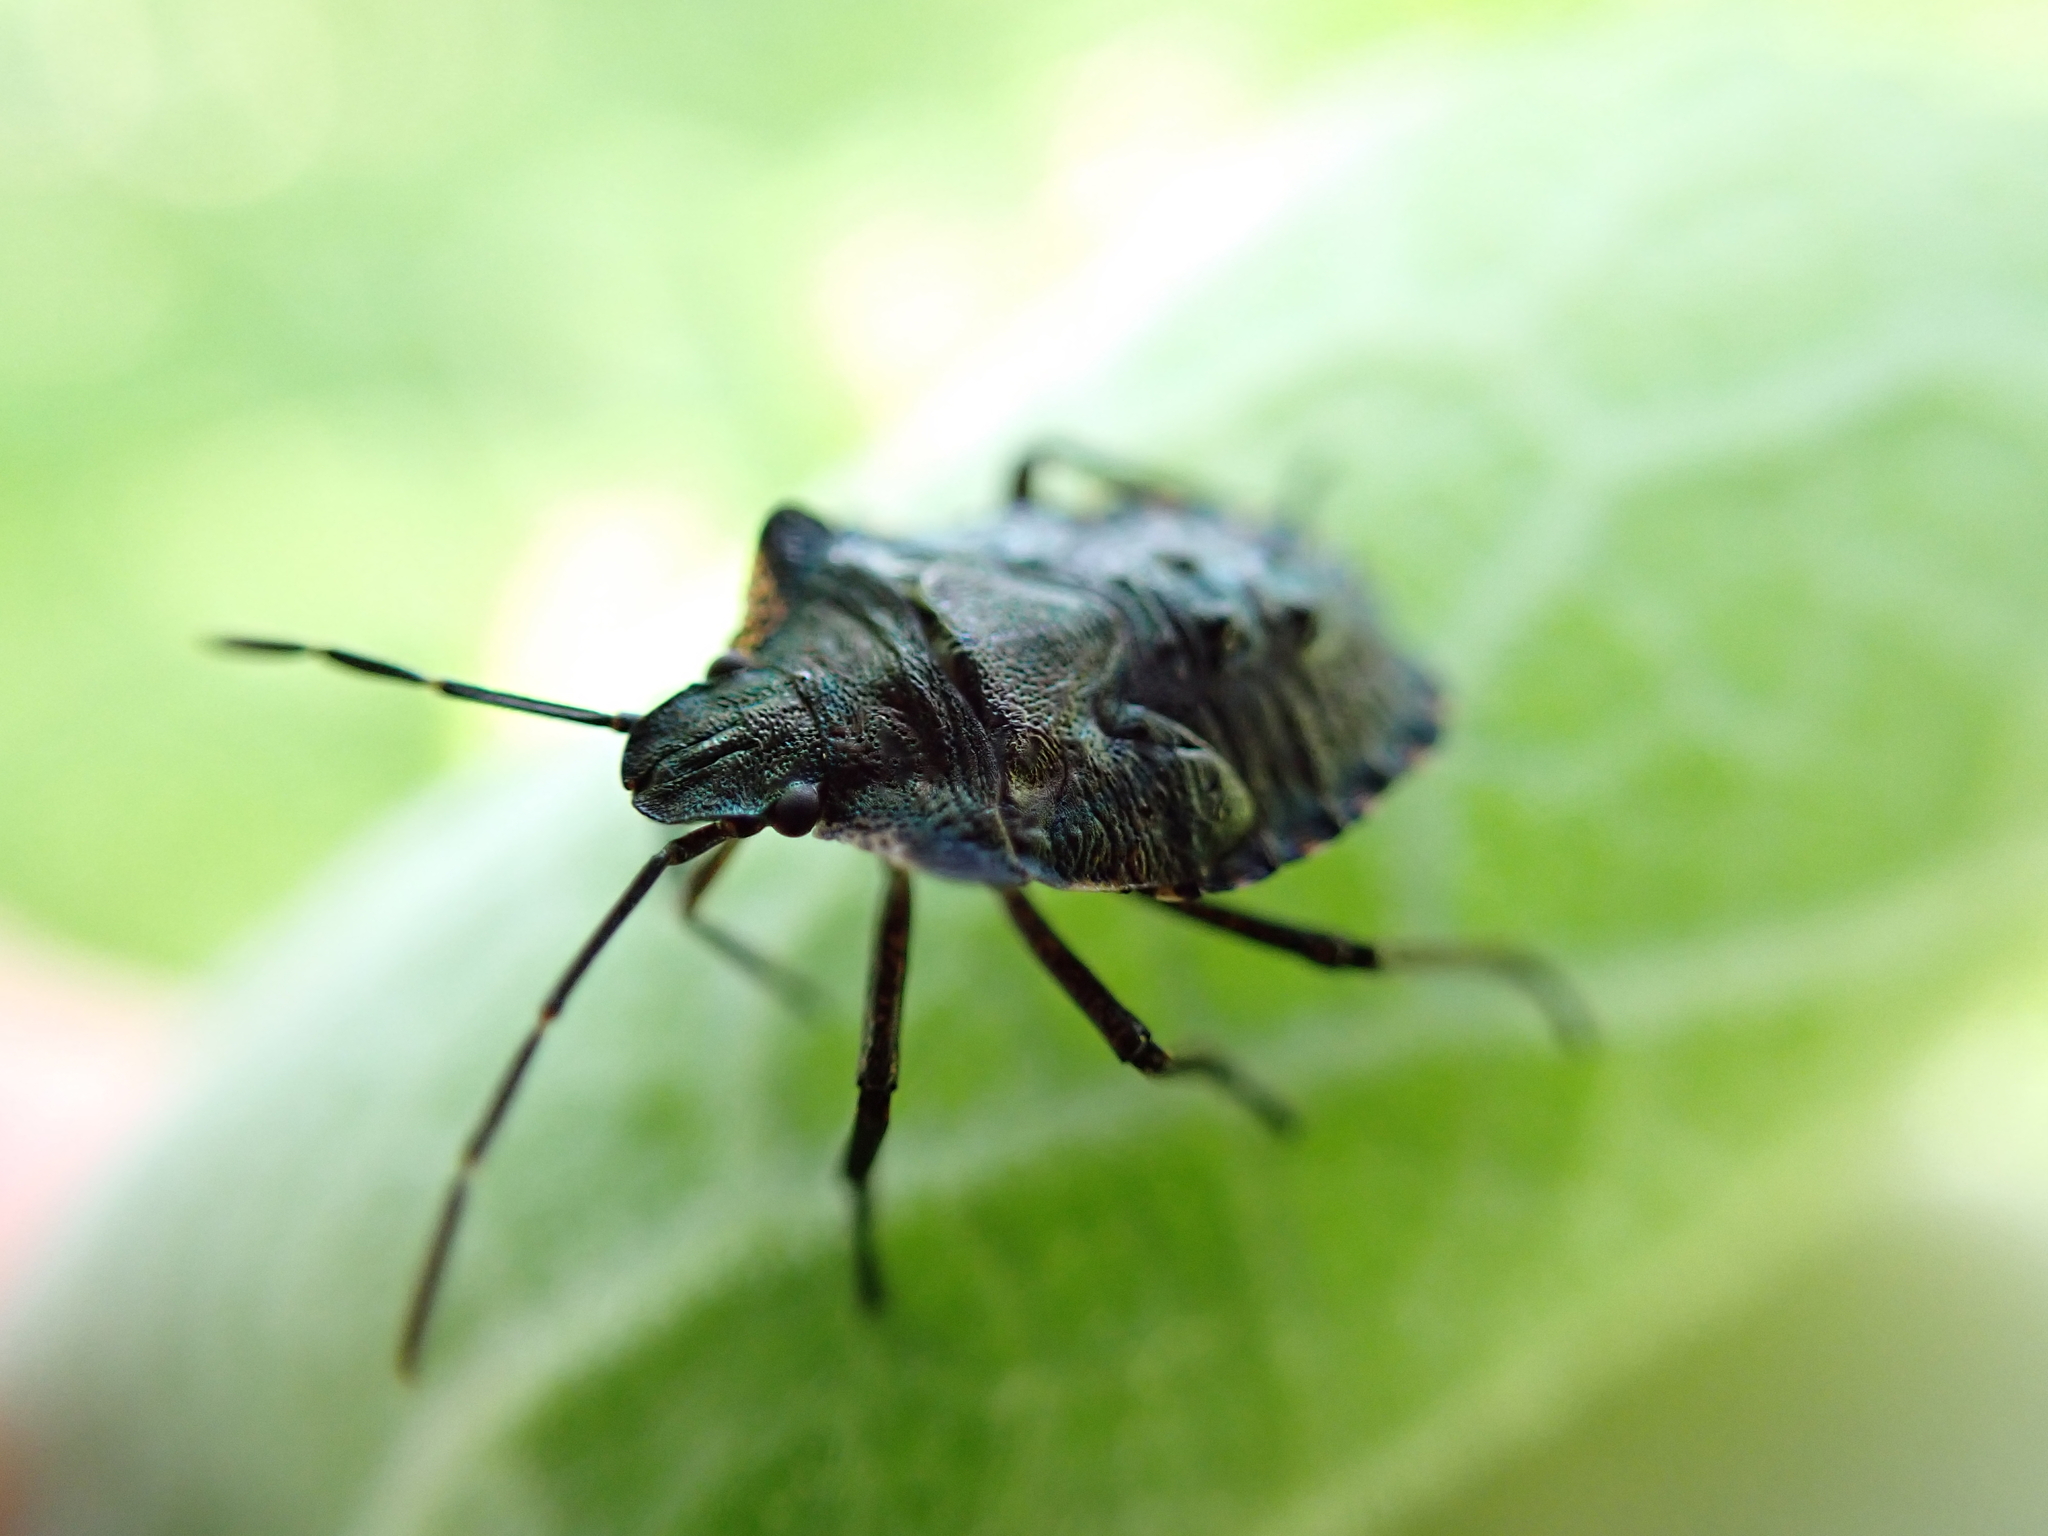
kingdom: Animalia
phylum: Arthropoda
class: Insecta
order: Hemiptera
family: Pentatomidae
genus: Pentatoma
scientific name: Pentatoma rufipes
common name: Forest bug
